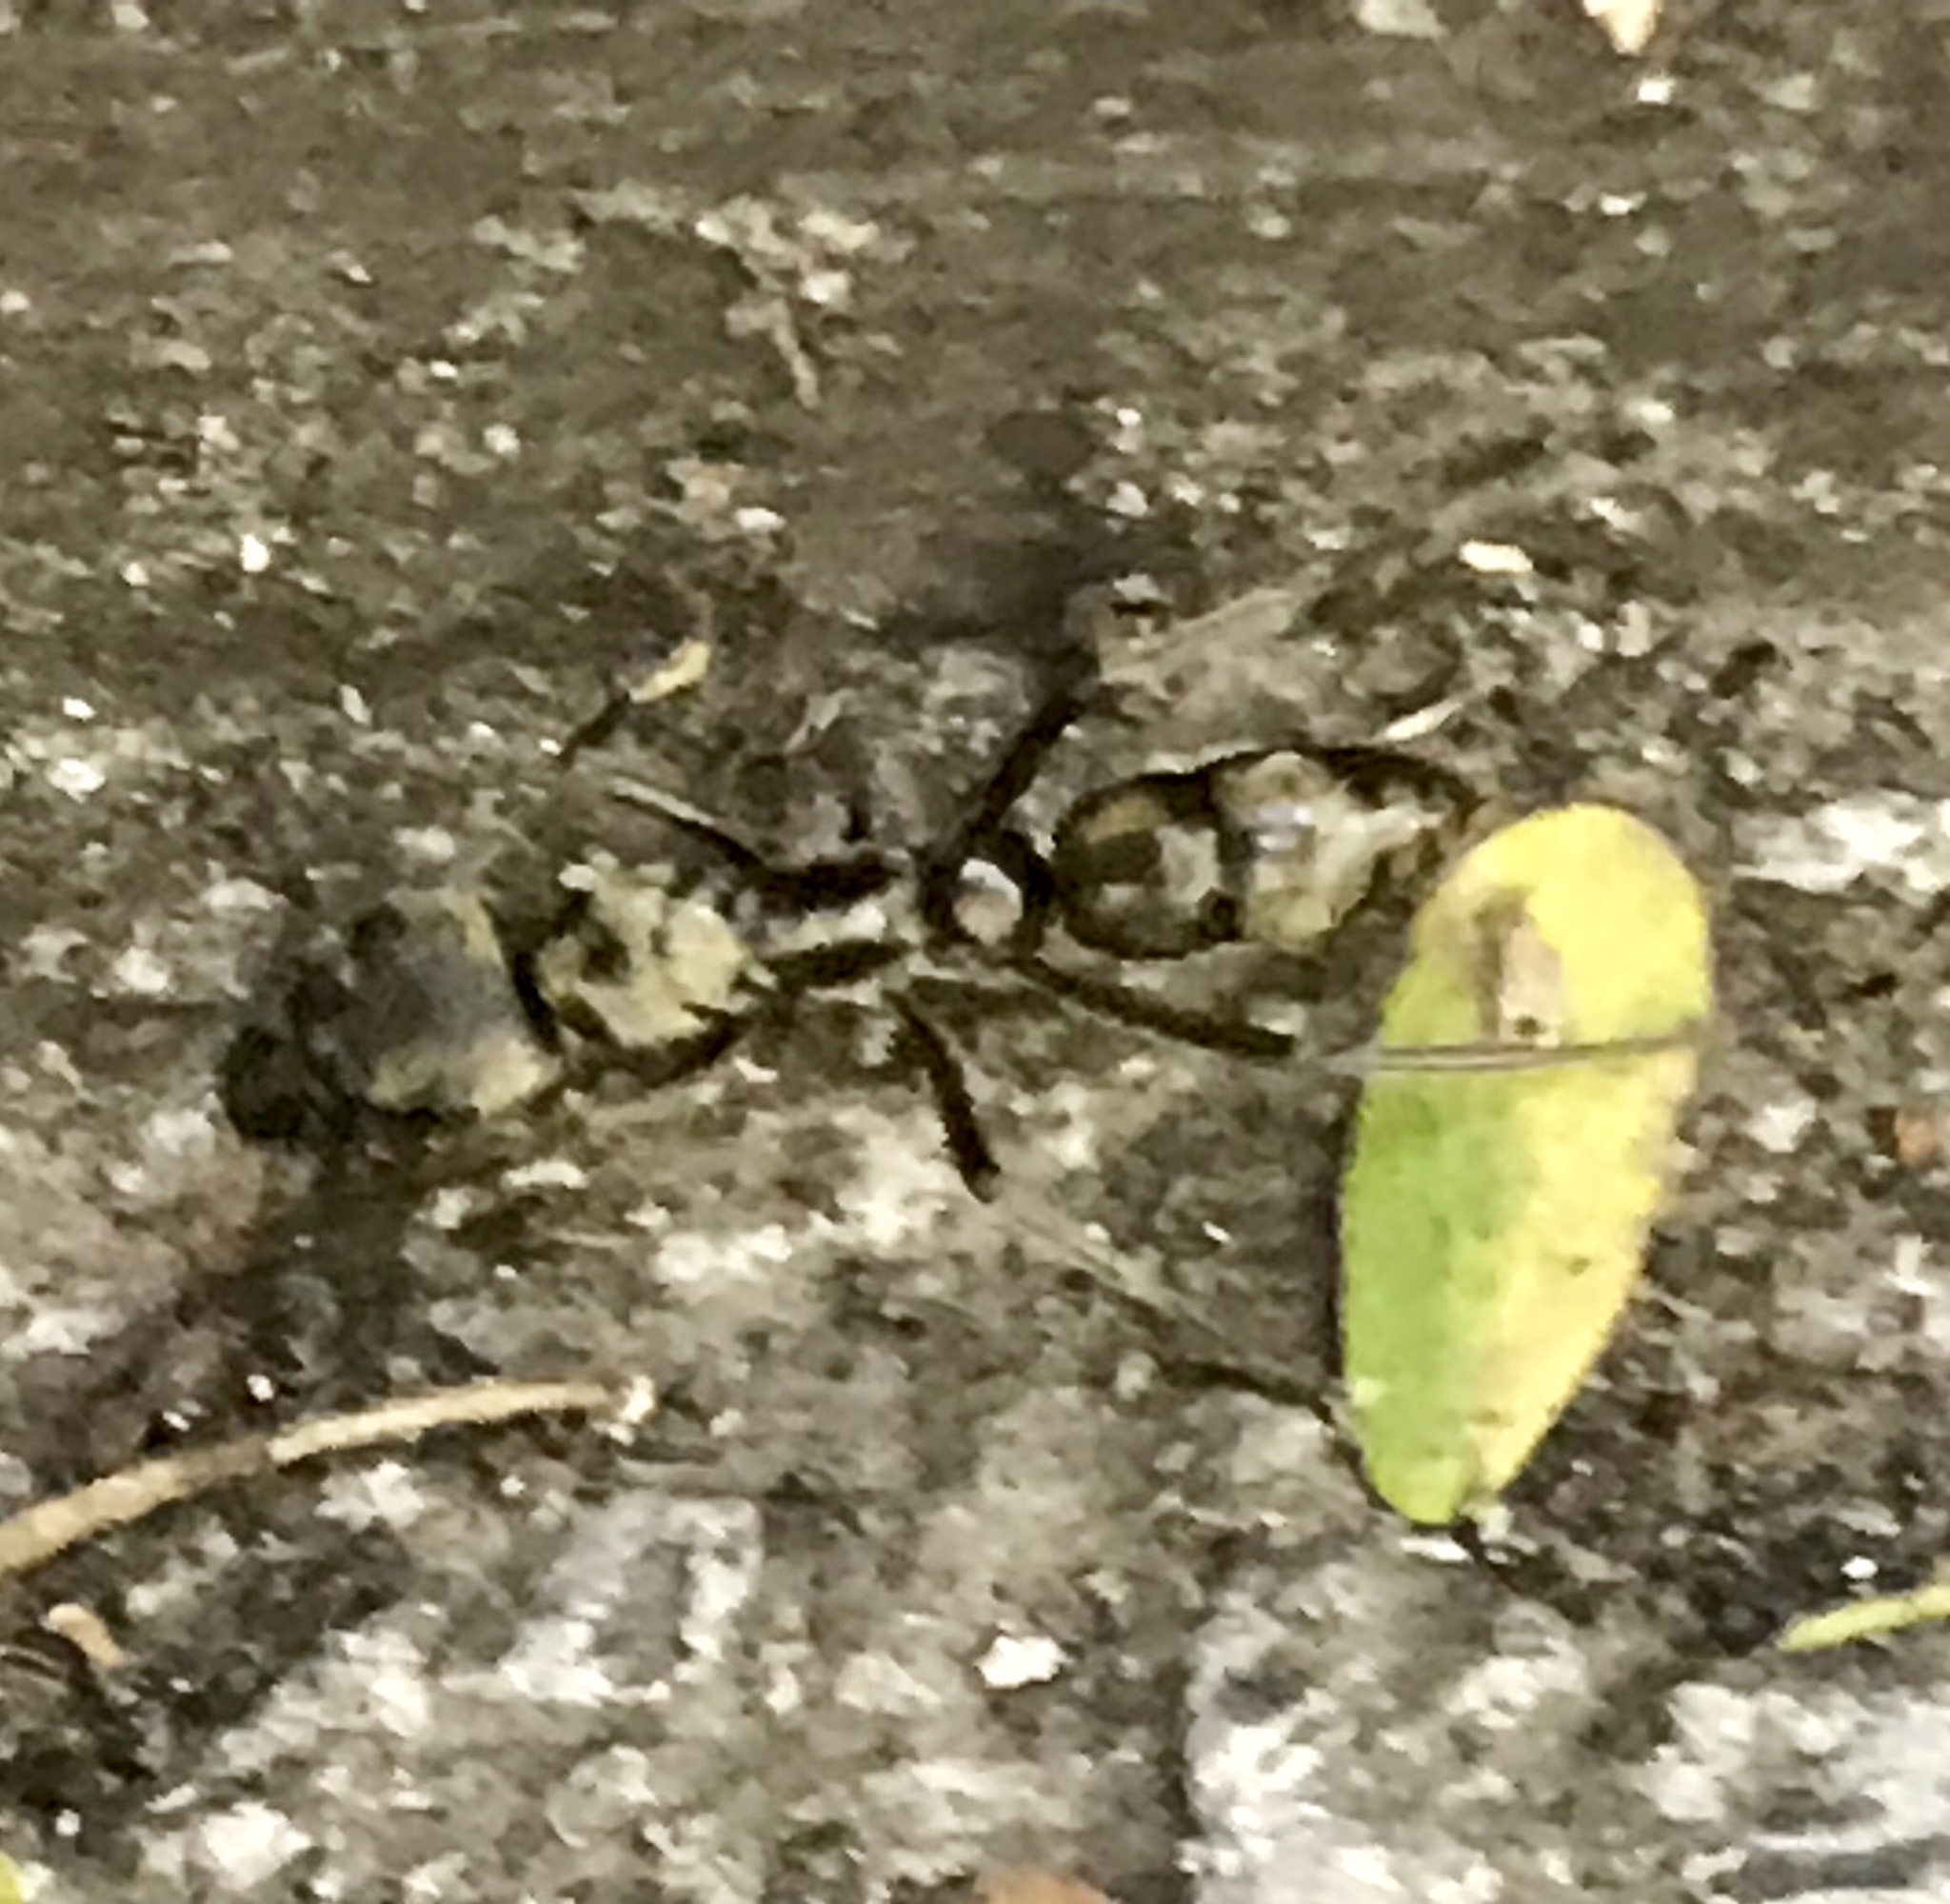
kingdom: Animalia
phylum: Arthropoda
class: Insecta
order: Hymenoptera
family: Formicidae
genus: Pachycondyla
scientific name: Pachycondyla villosa
